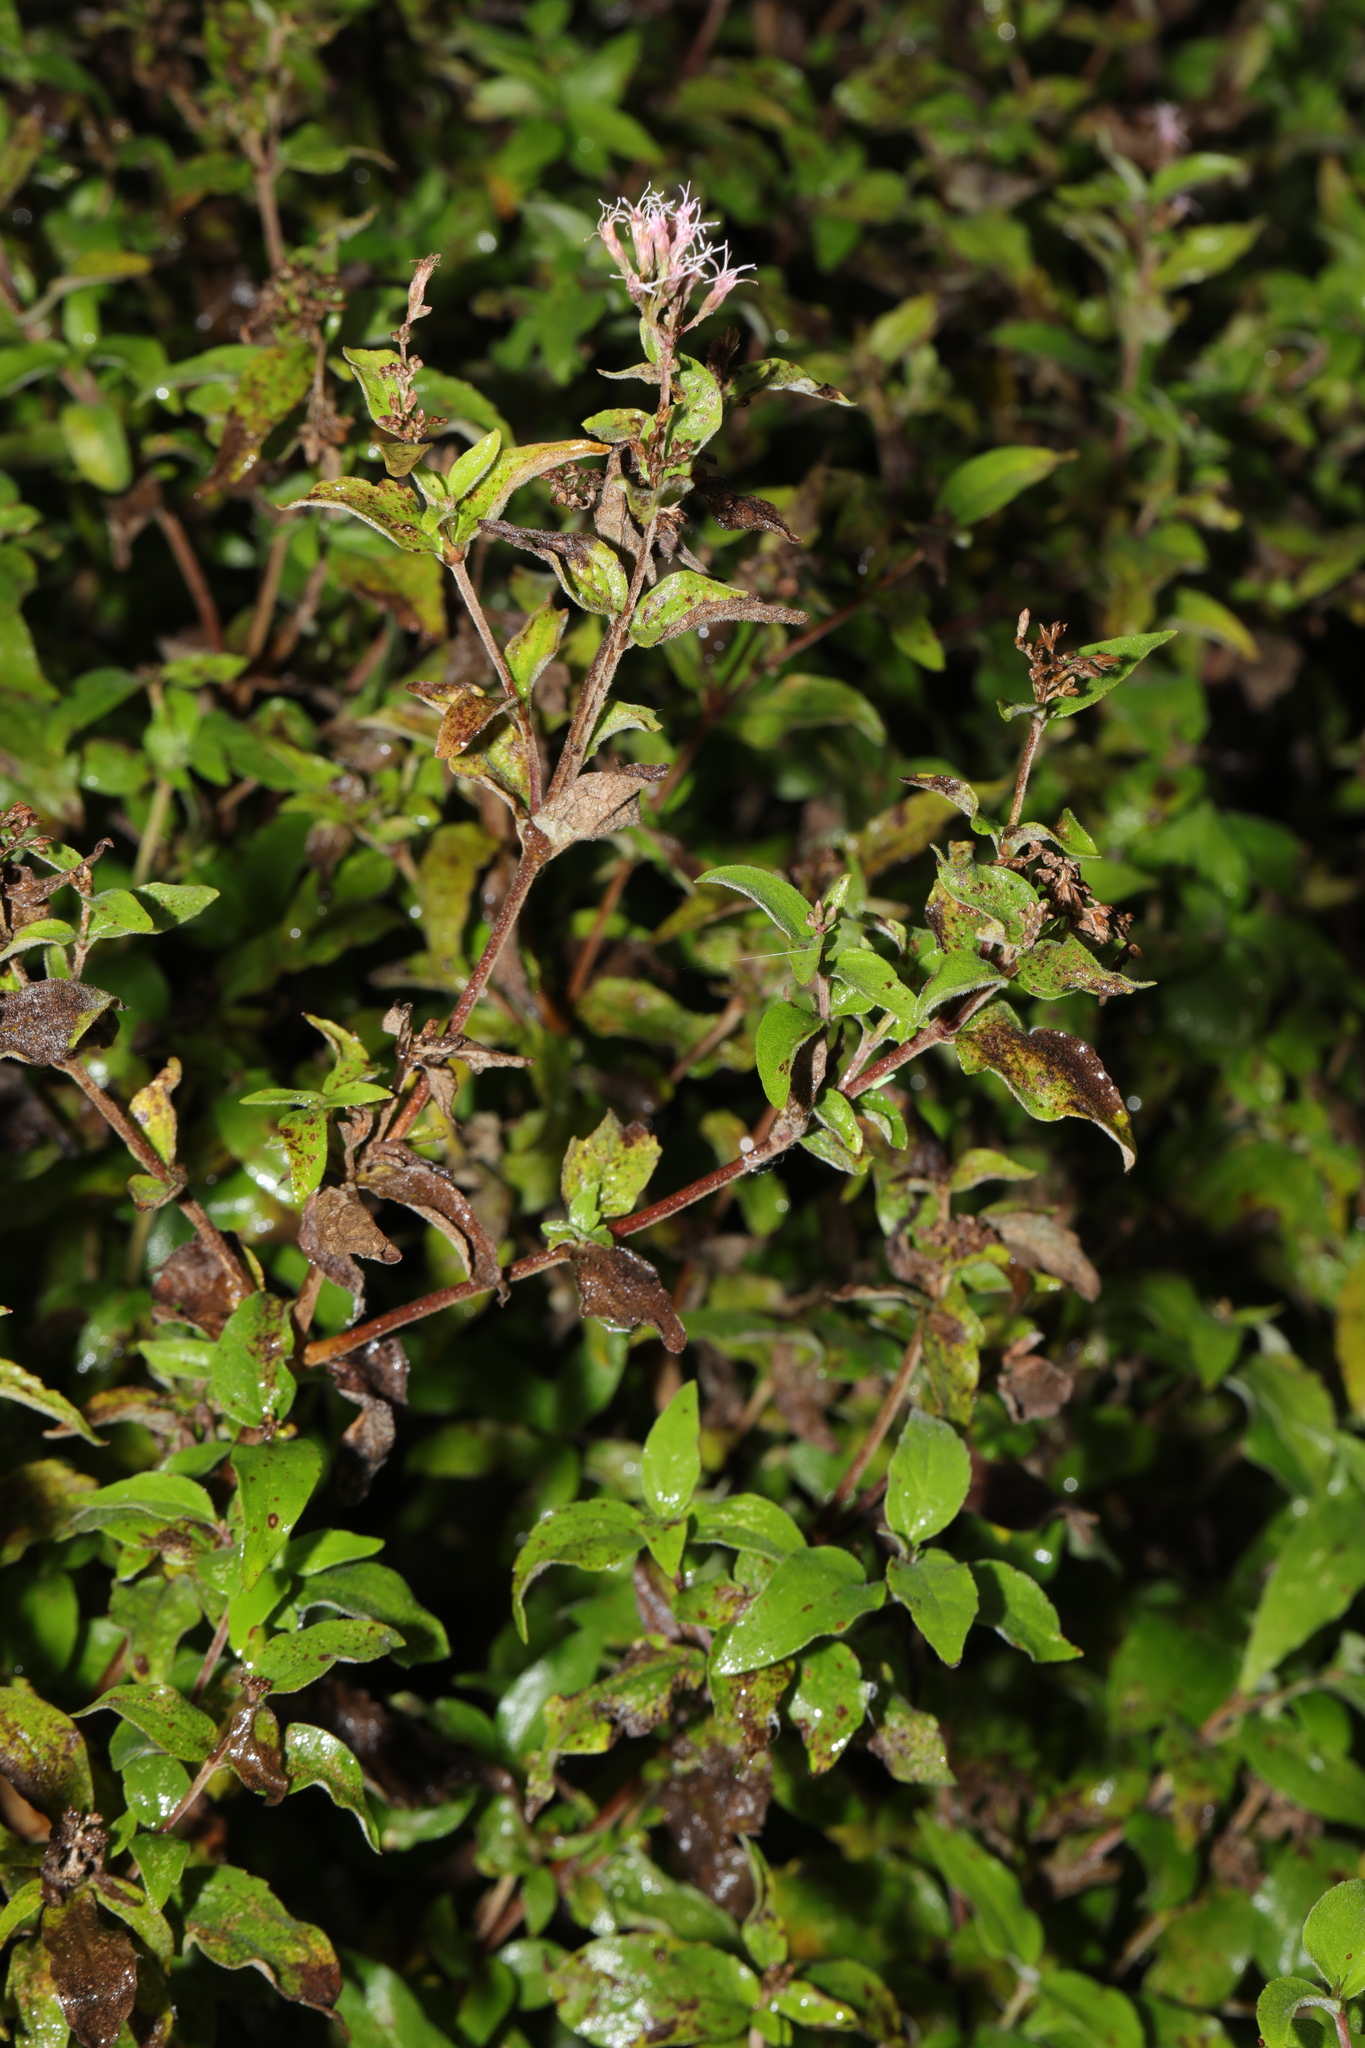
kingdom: Plantae
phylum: Tracheophyta
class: Magnoliopsida
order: Asterales
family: Asteraceae
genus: Eupatorium
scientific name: Eupatorium cannabinum
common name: Hemp-agrimony
